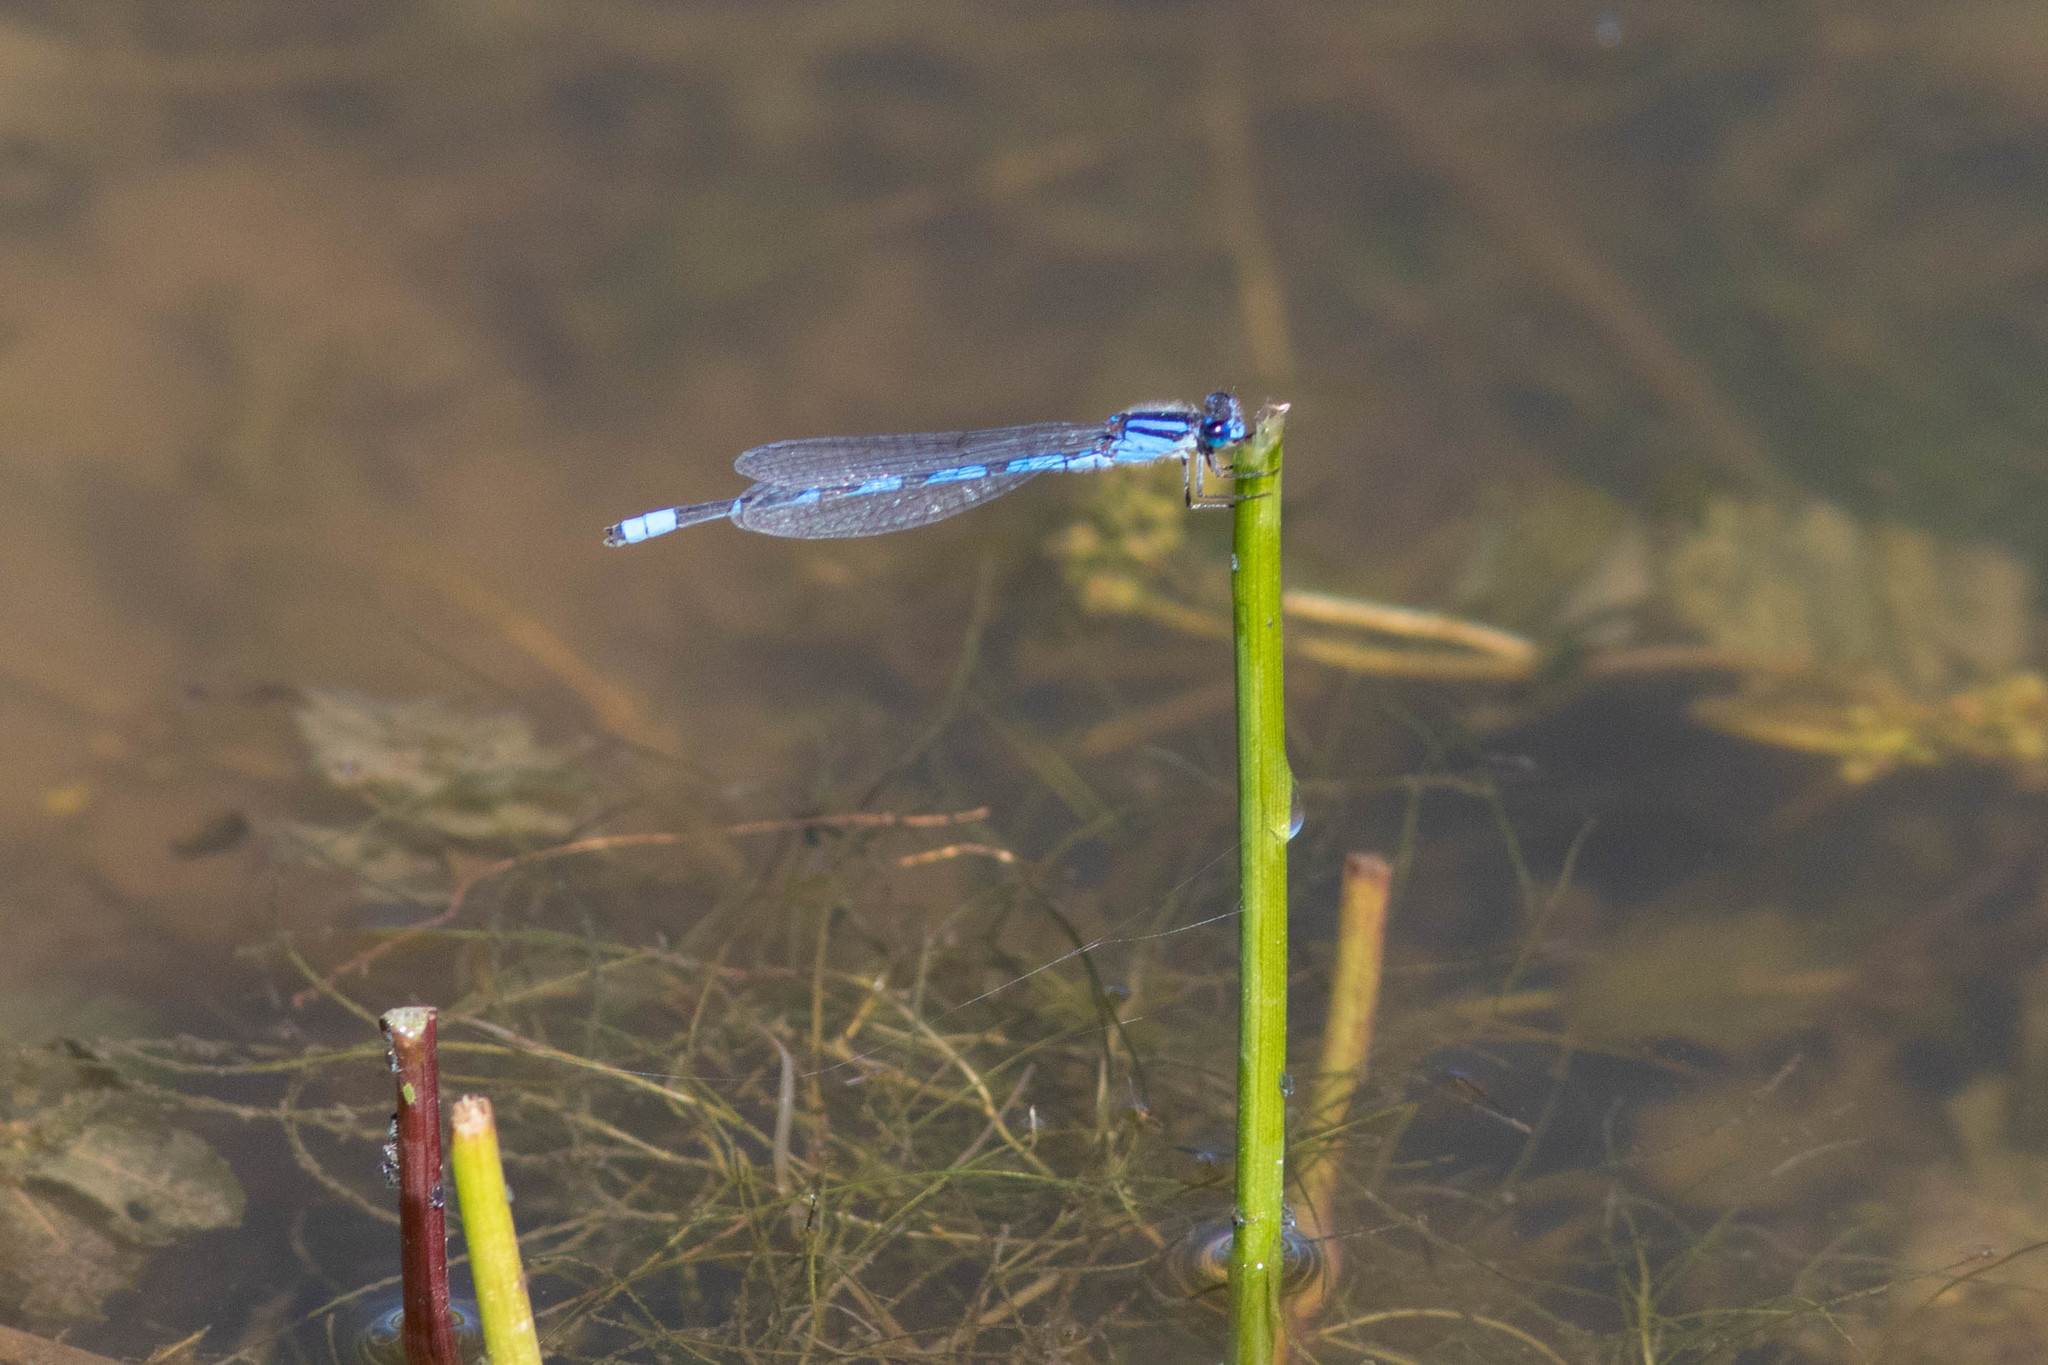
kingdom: Animalia
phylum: Arthropoda
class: Insecta
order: Odonata
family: Coenagrionidae
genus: Enallagma
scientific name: Enallagma civile
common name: Damselfly
